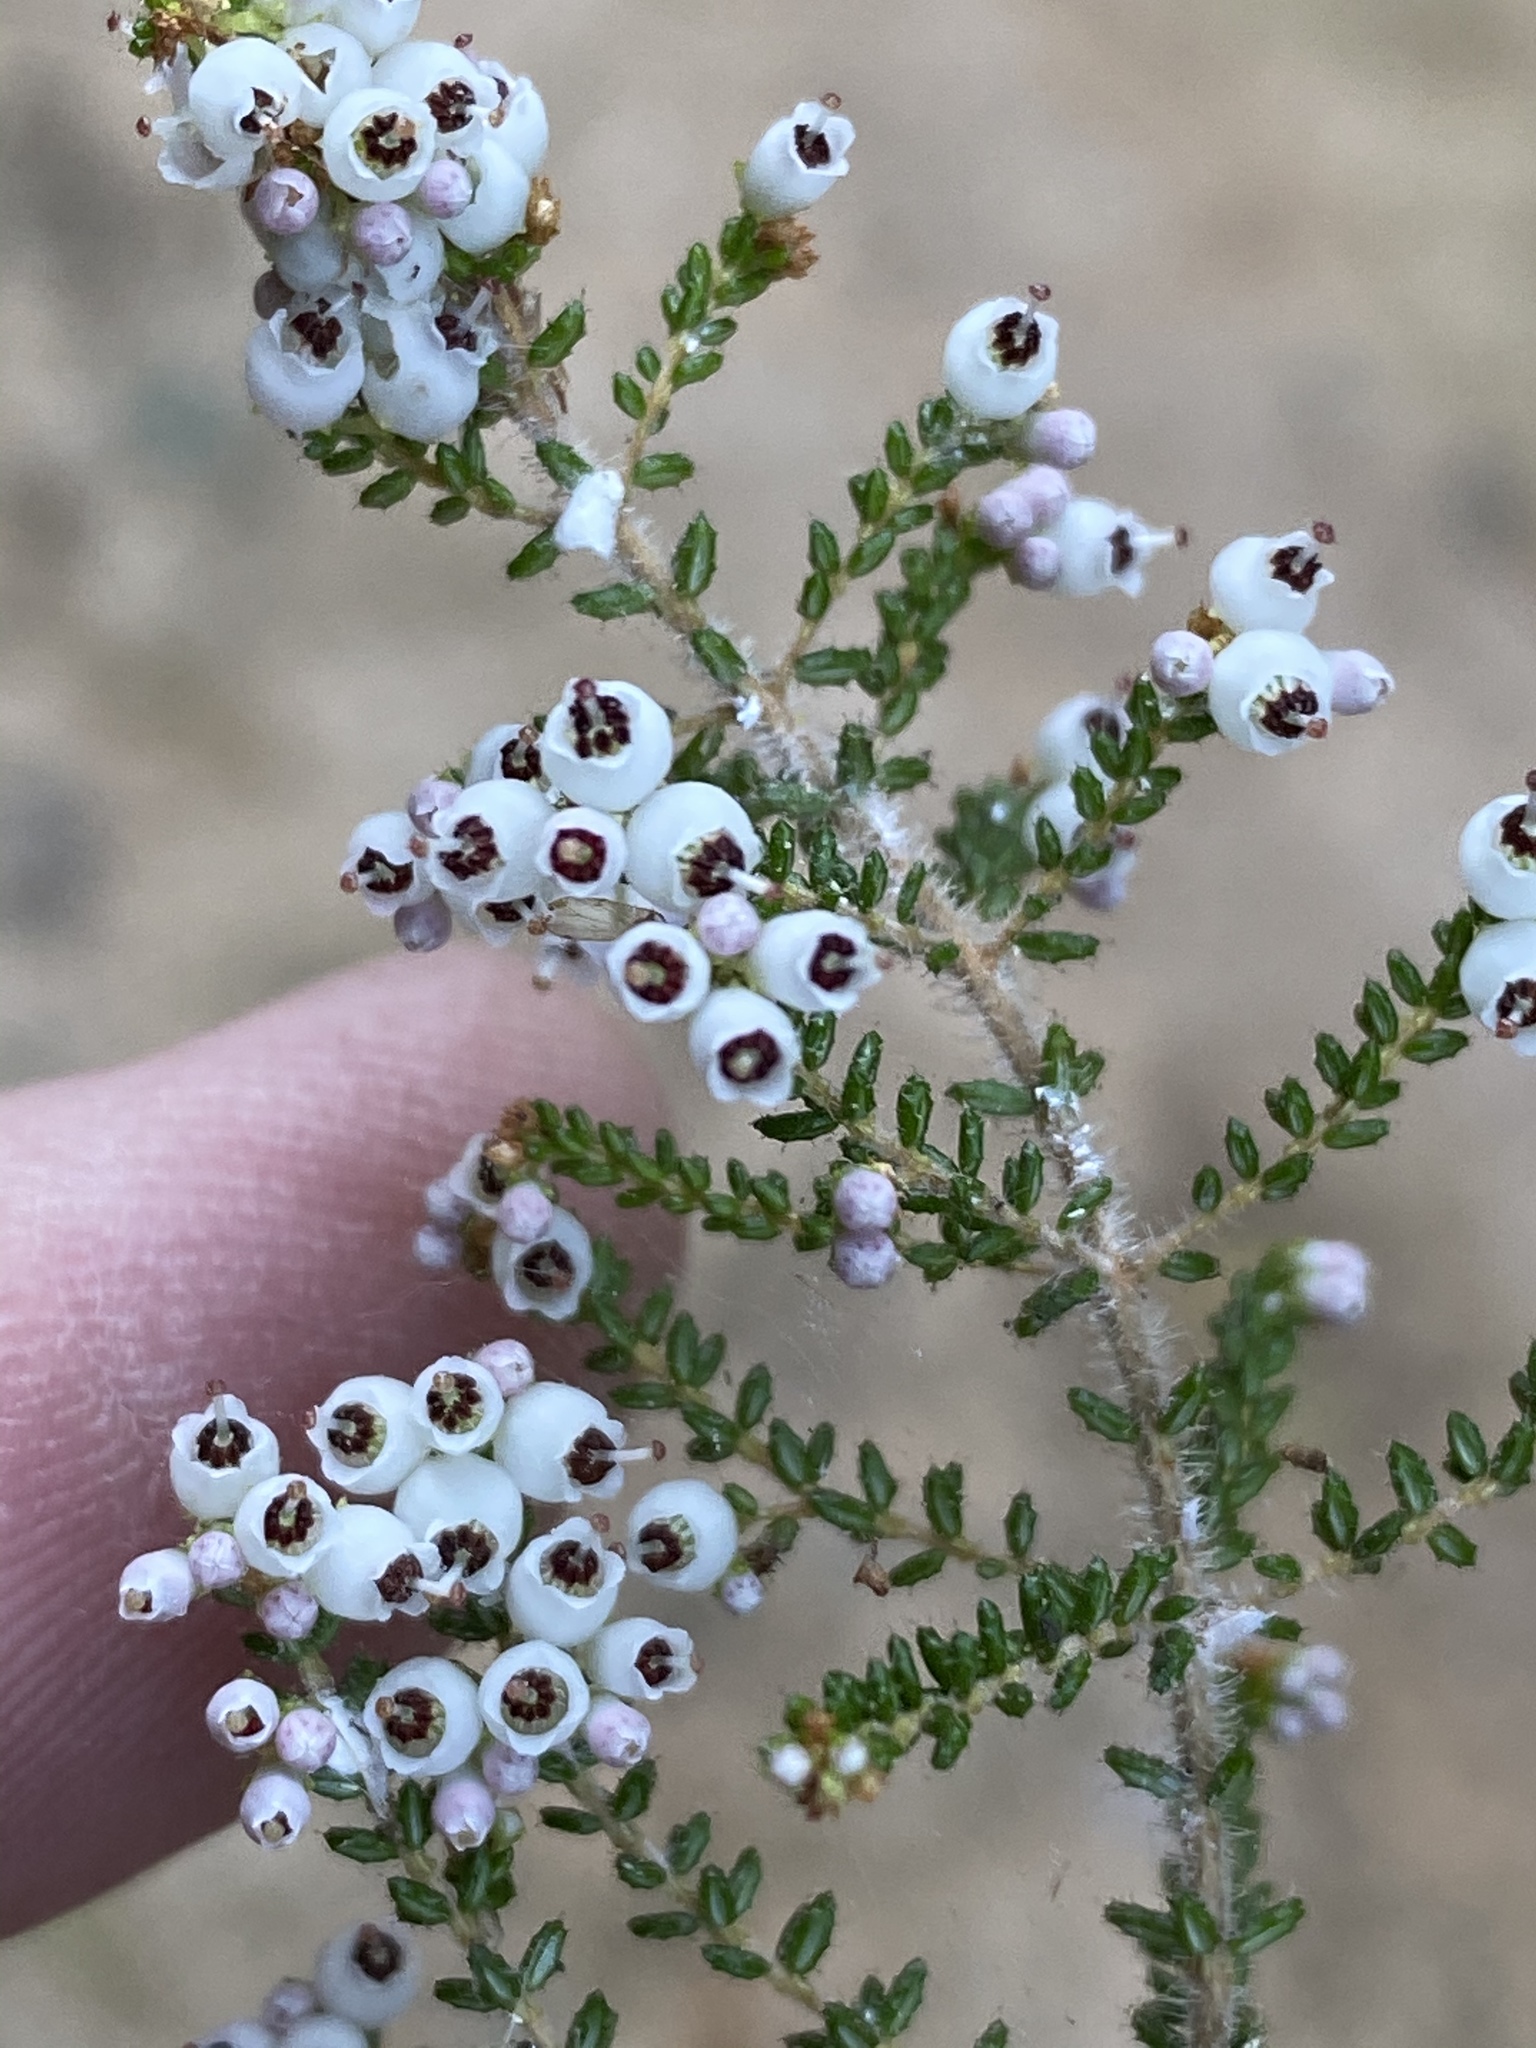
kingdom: Plantae
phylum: Tracheophyta
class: Magnoliopsida
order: Ericales
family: Ericaceae
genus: Erica
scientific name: Erica scabriuscula
